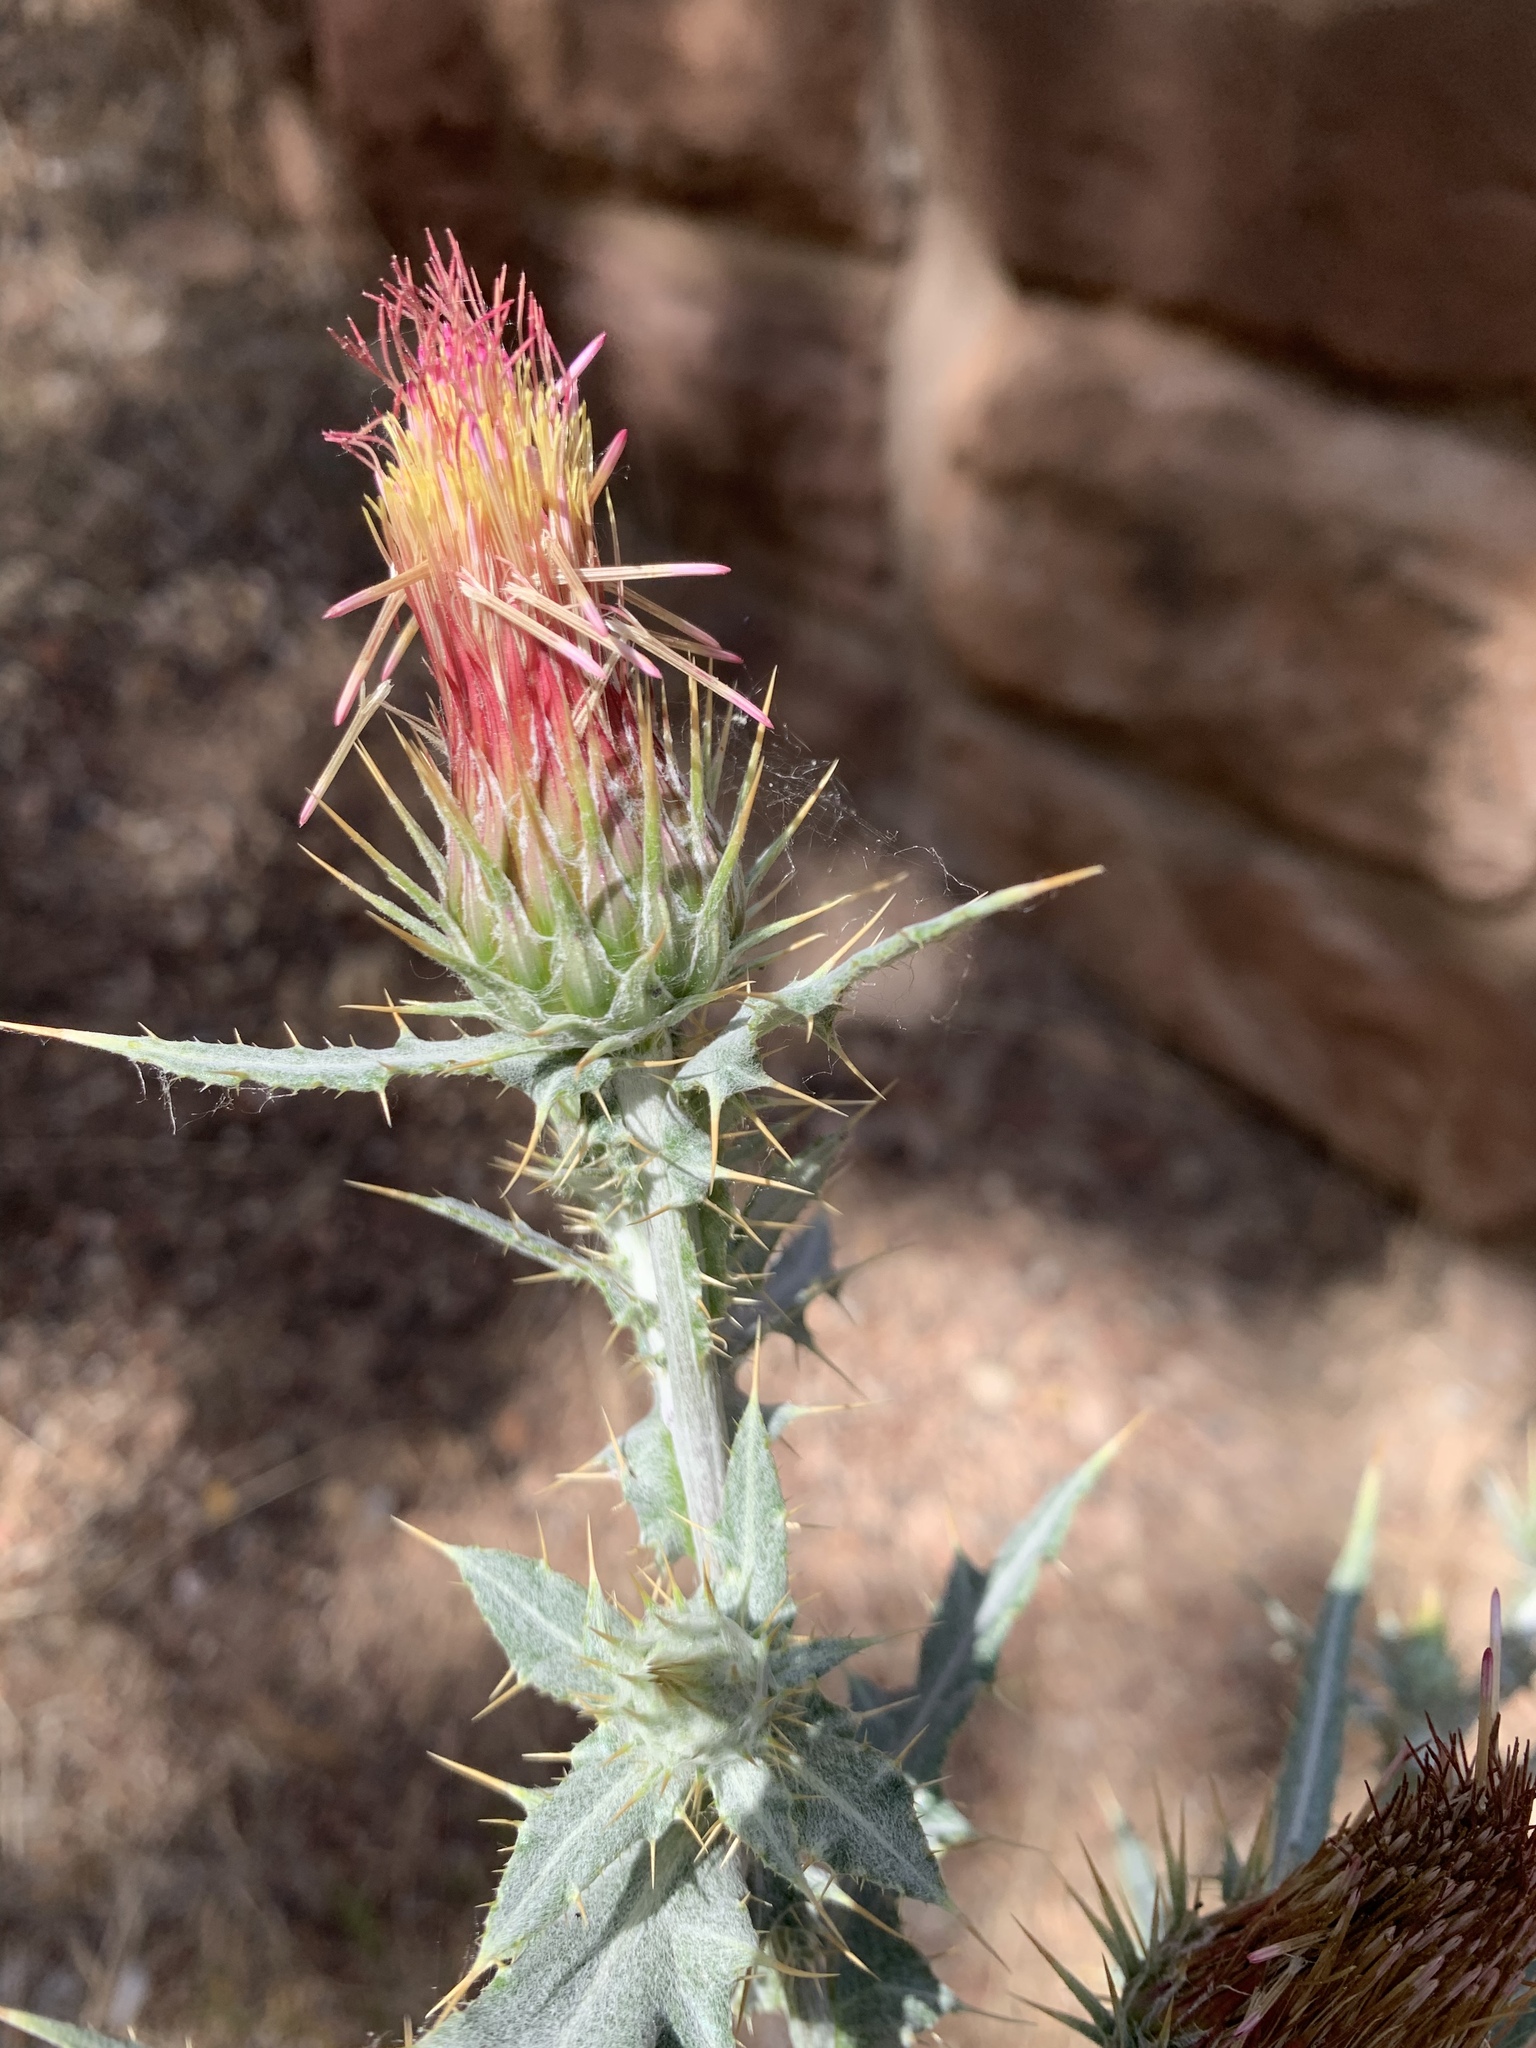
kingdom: Plantae
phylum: Tracheophyta
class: Magnoliopsida
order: Asterales
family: Asteraceae
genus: Cirsium
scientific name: Cirsium arizonicum
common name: Arizona thistle
